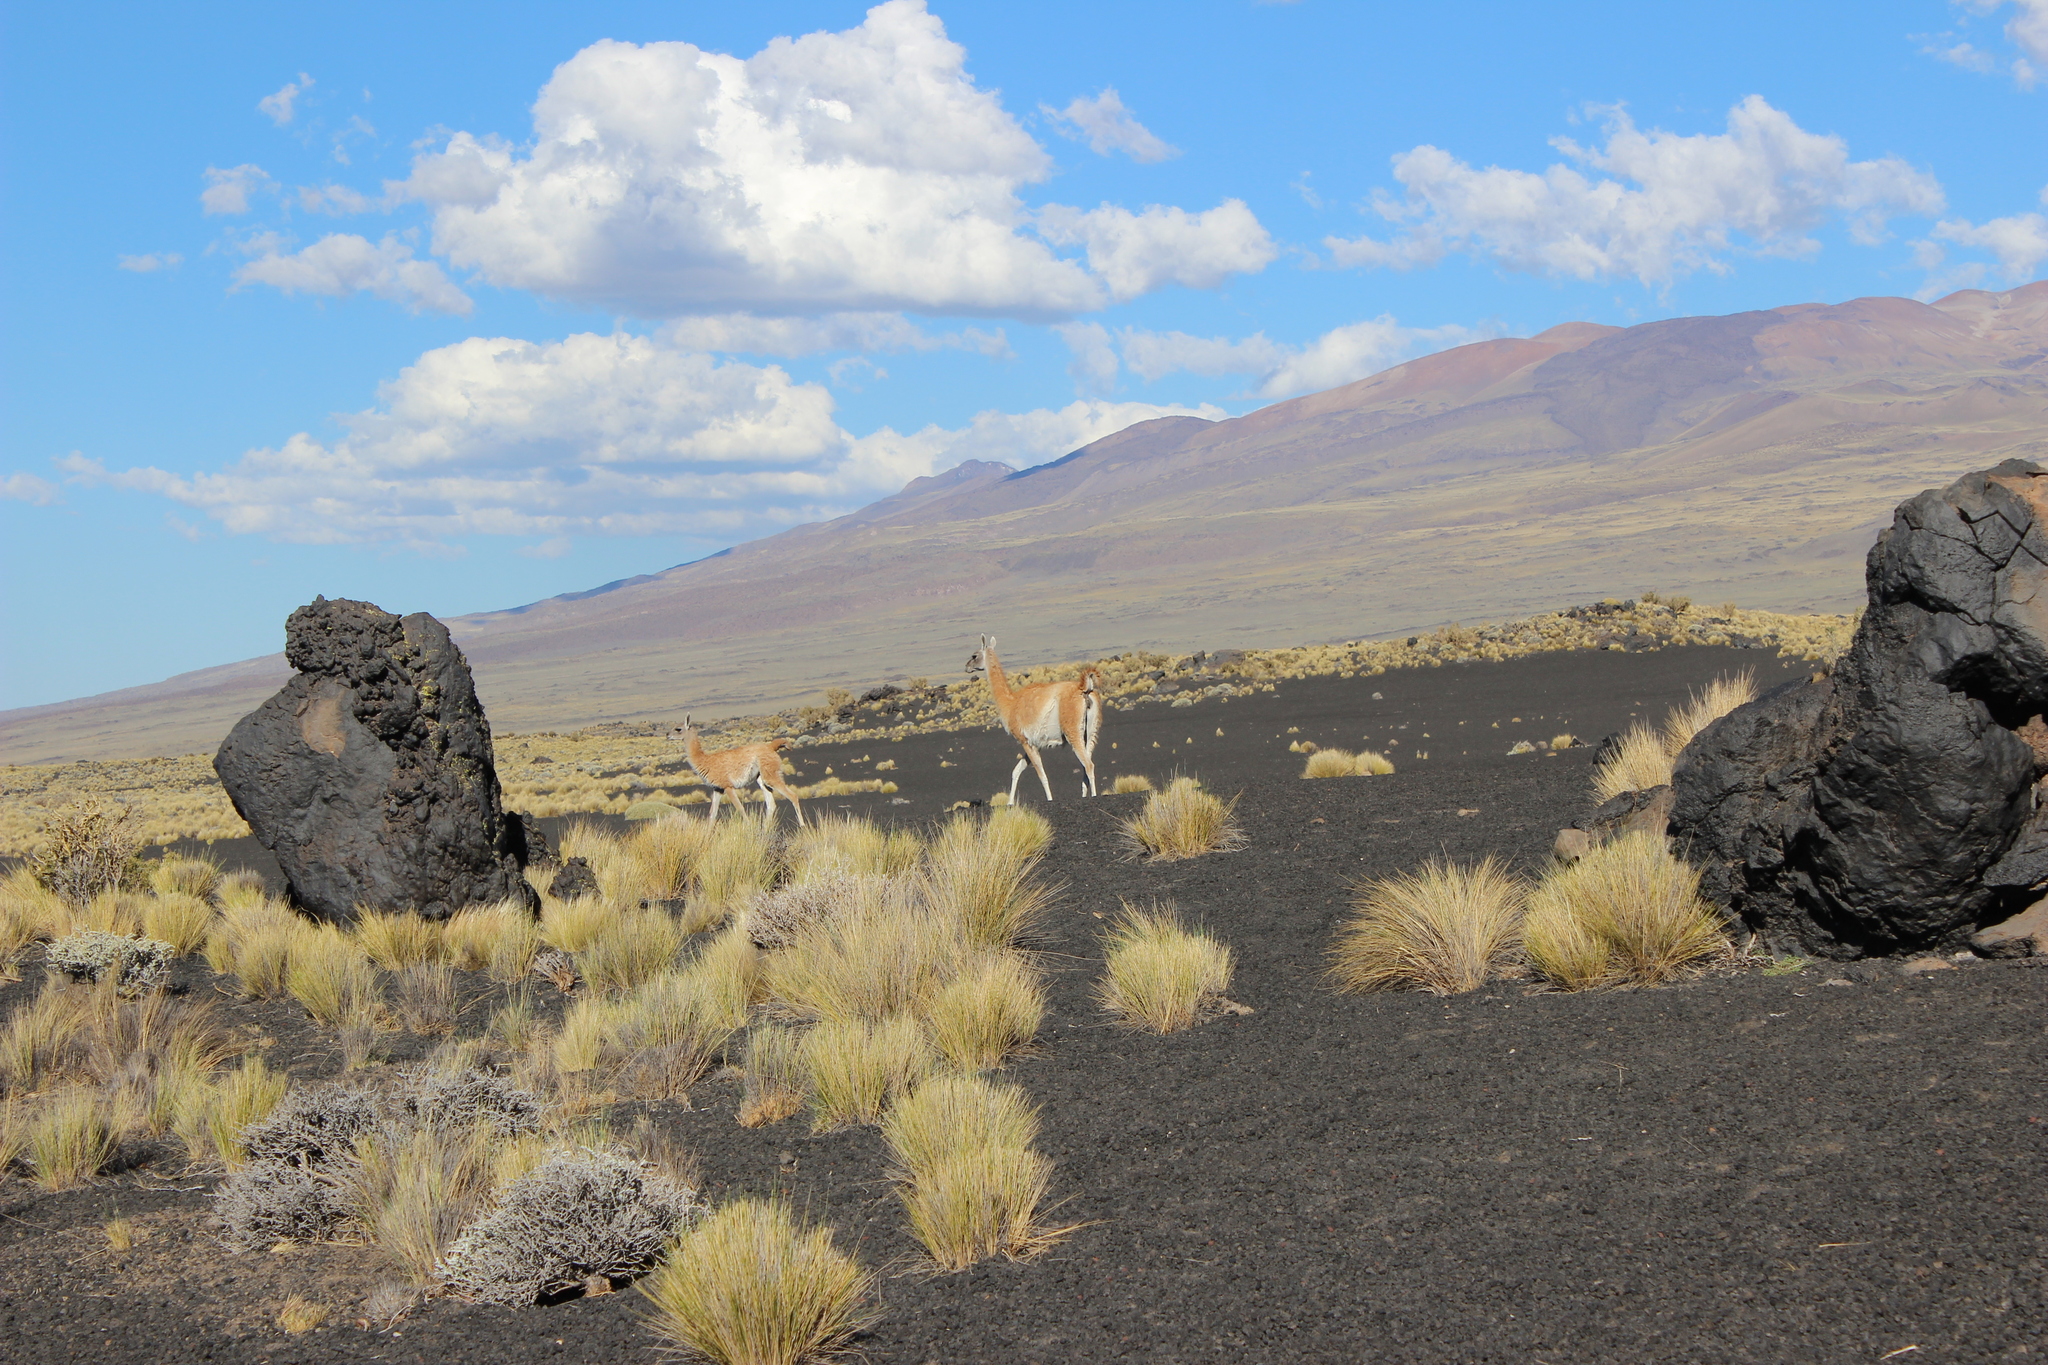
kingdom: Animalia
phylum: Chordata
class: Mammalia
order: Artiodactyla
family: Camelidae
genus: Lama
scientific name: Lama glama
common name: Llama
